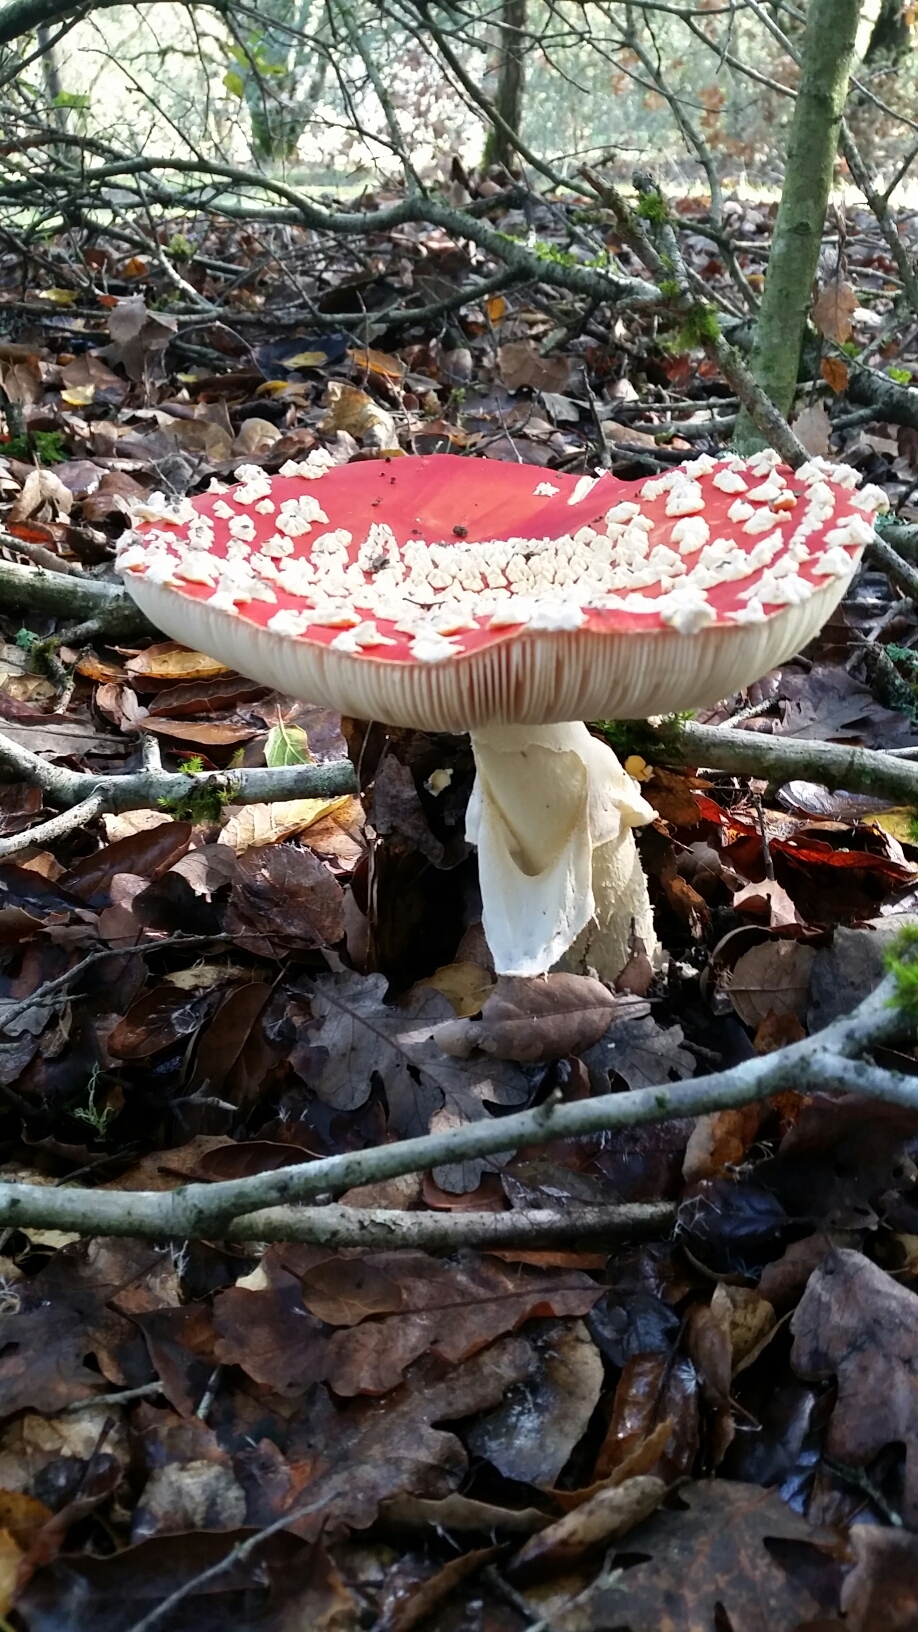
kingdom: Fungi
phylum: Basidiomycota
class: Agaricomycetes
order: Agaricales
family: Amanitaceae
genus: Amanita
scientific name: Amanita muscaria
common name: Fly agaric
